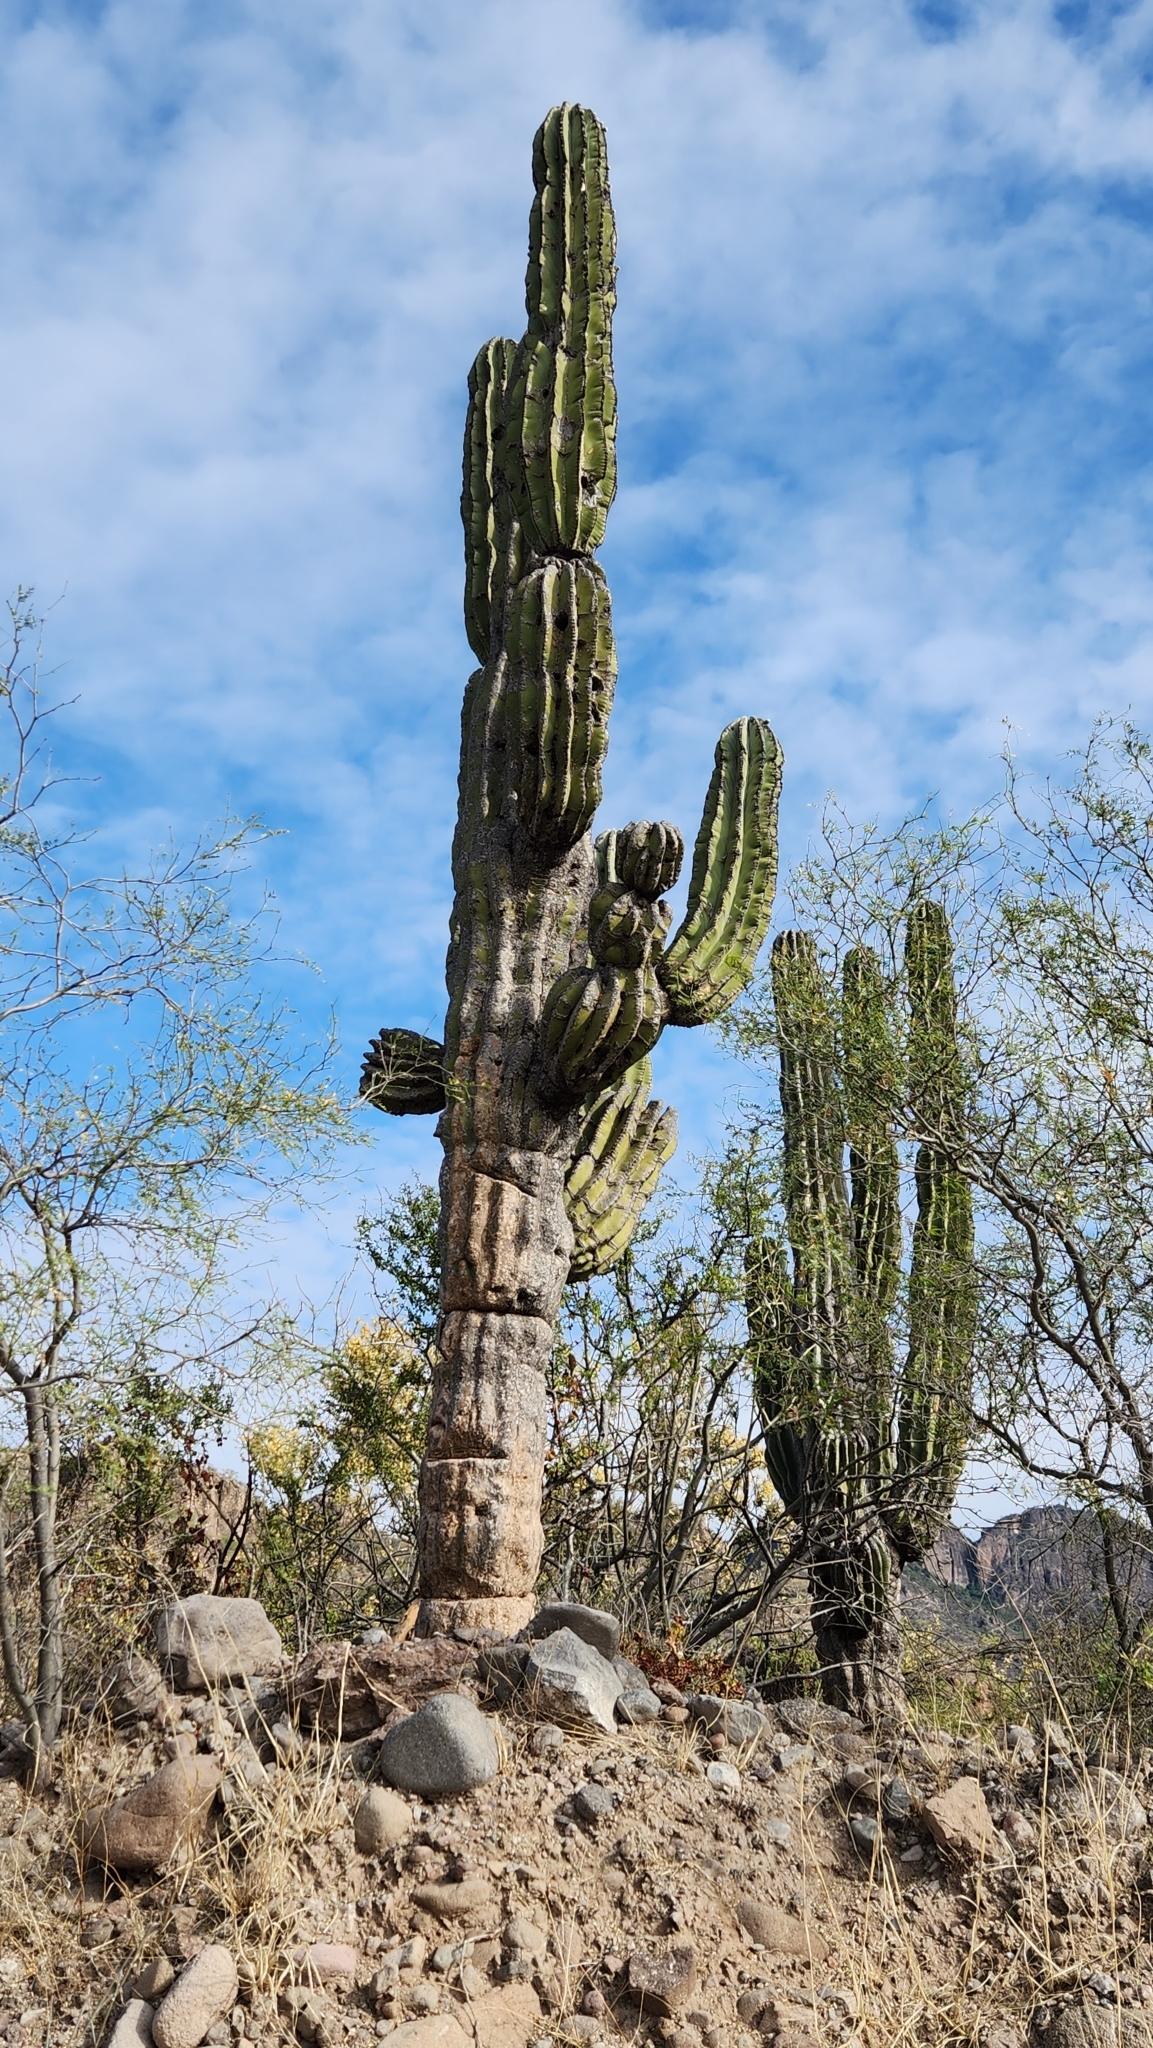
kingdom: Plantae
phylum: Tracheophyta
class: Magnoliopsida
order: Caryophyllales
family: Cactaceae
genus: Pachycereus
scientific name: Pachycereus pringlei
